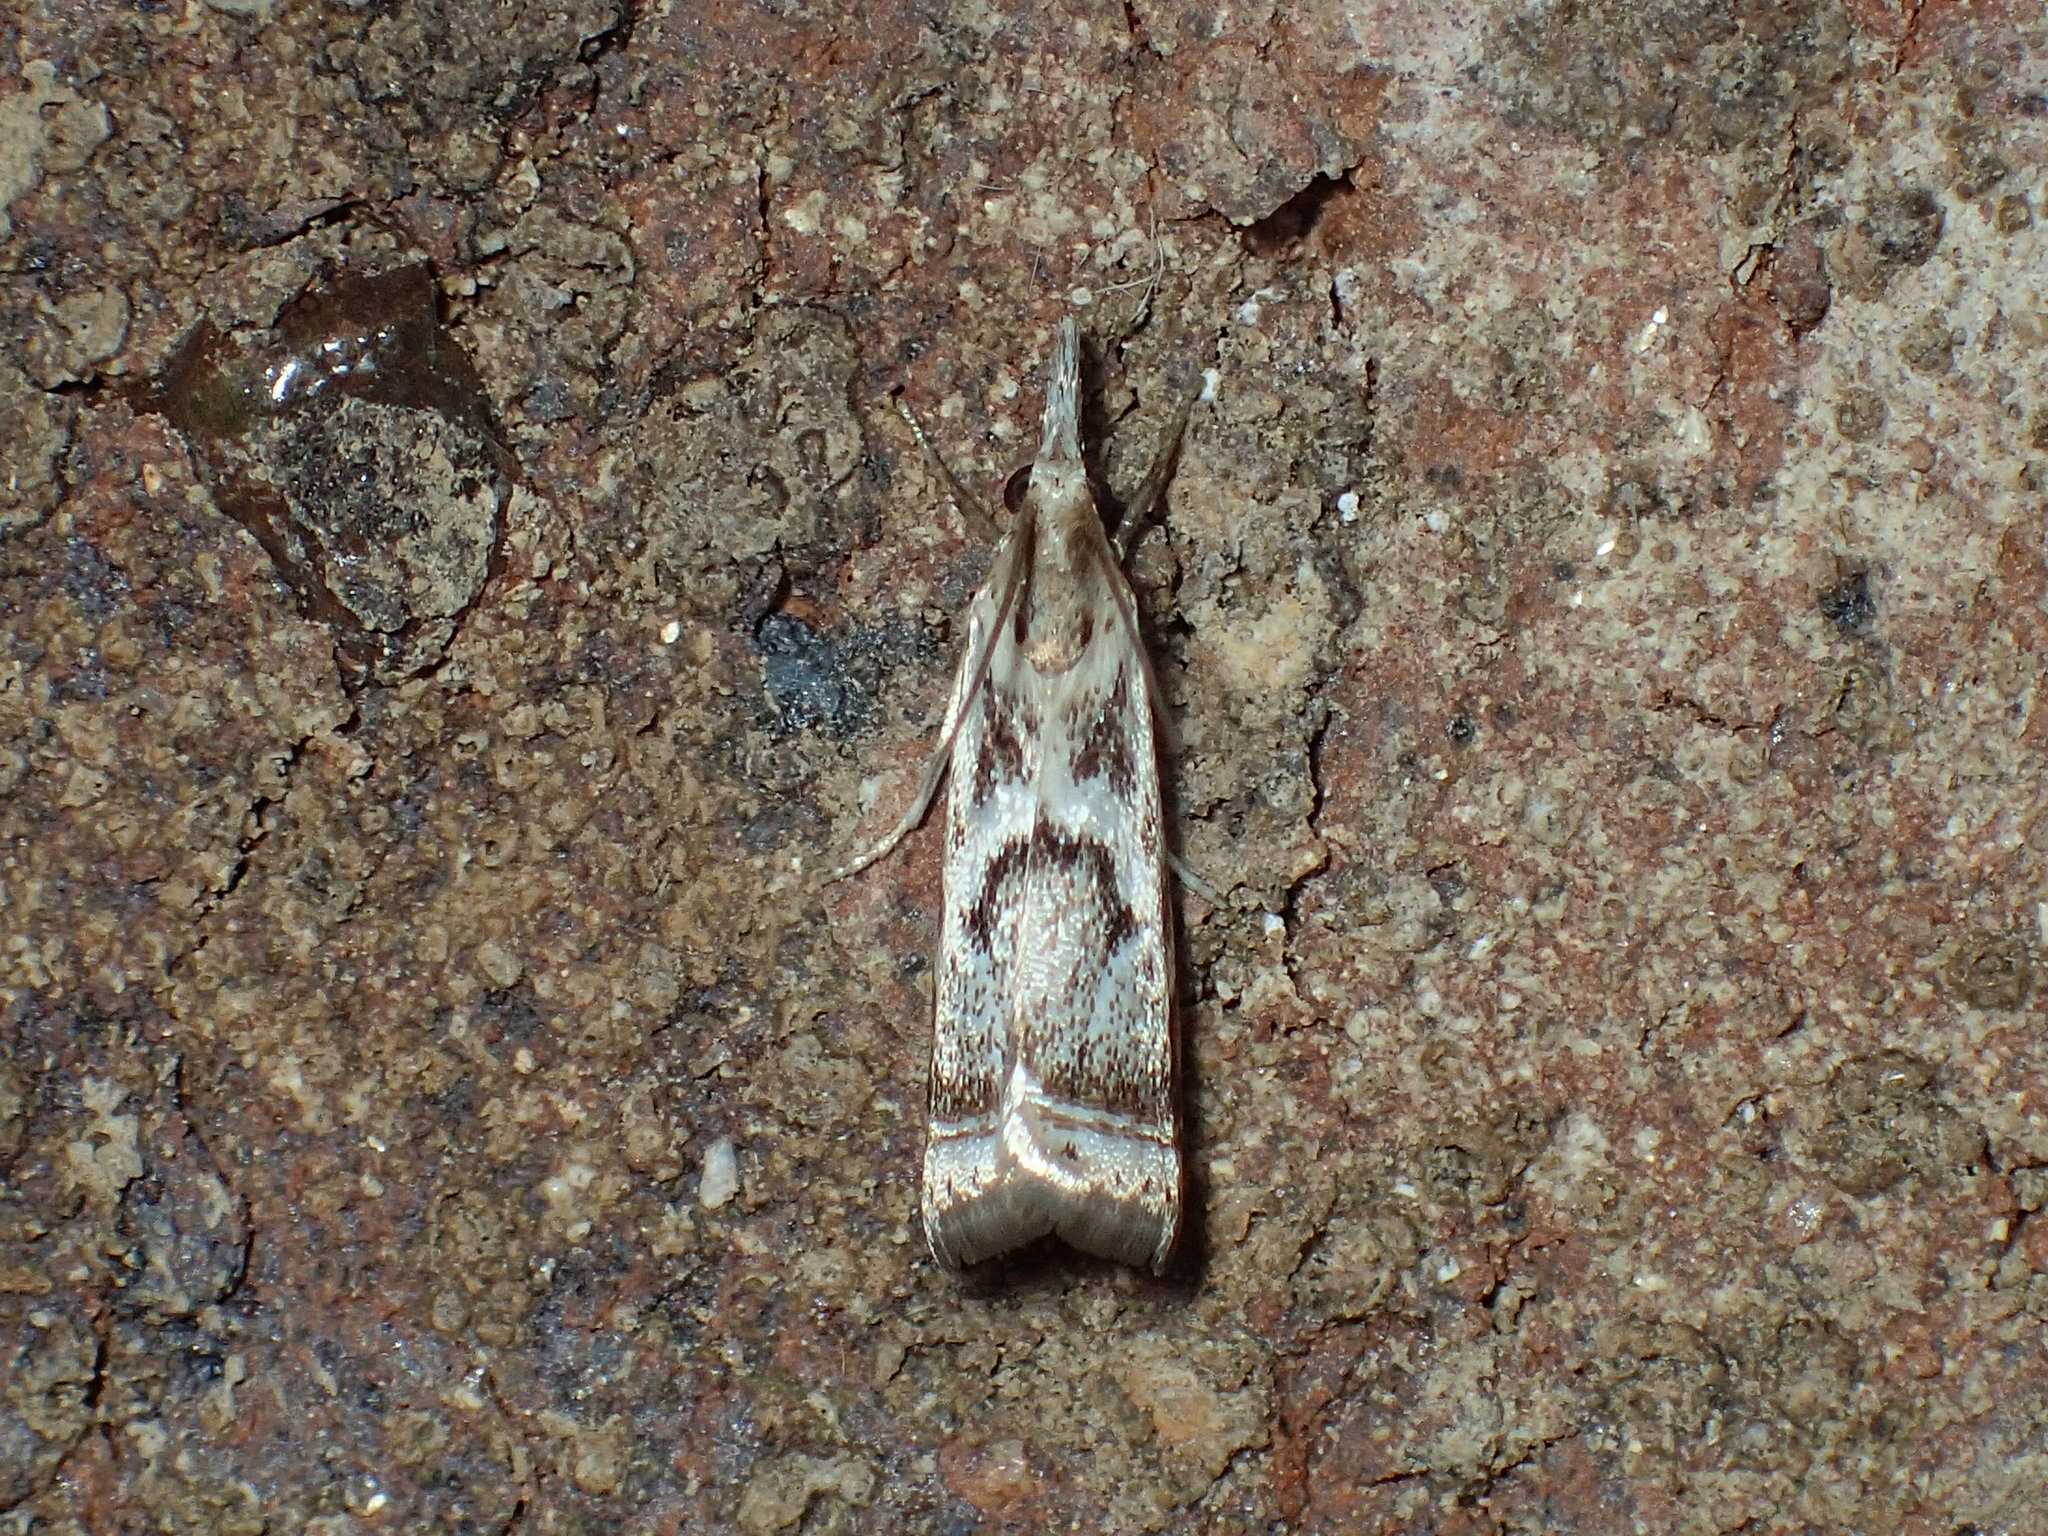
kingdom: Animalia
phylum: Arthropoda
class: Insecta
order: Lepidoptera
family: Crambidae
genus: Microcrambus
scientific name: Microcrambus elegans
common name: Elegant grass-veneer
